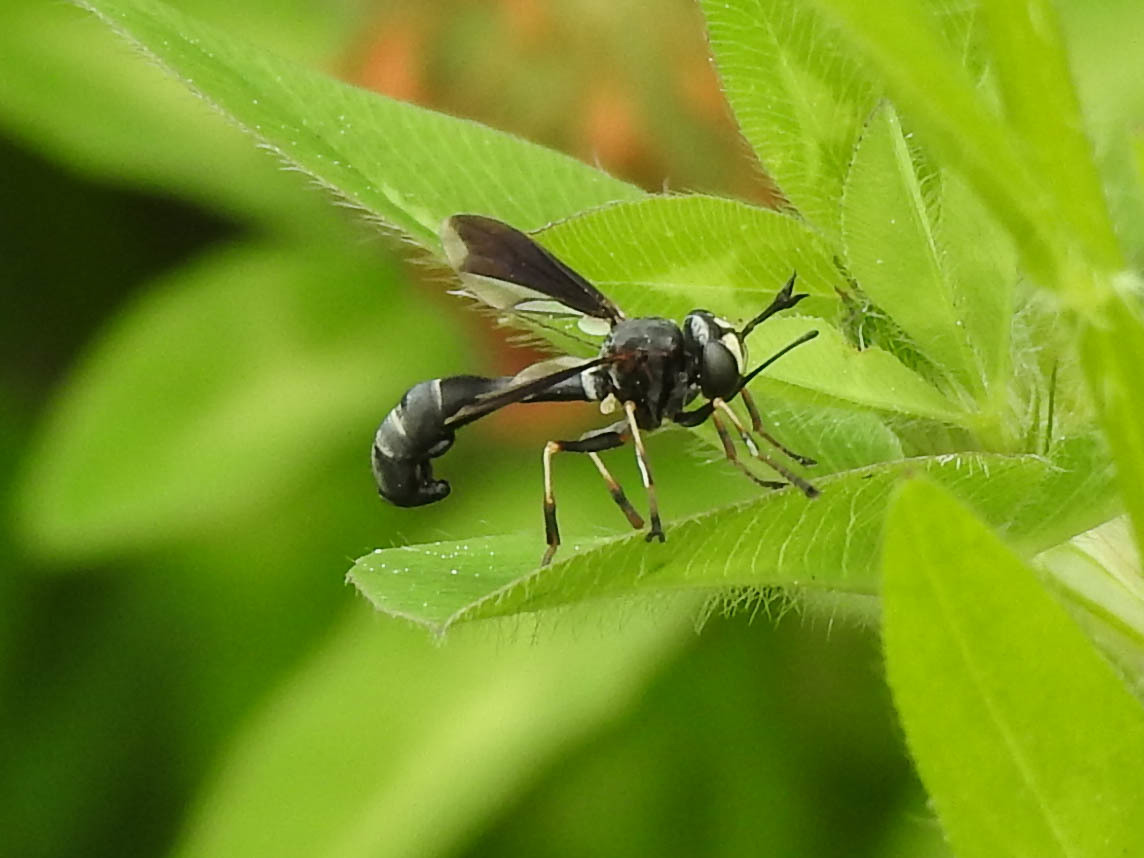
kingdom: Animalia
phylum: Arthropoda
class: Insecta
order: Diptera
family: Conopidae
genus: Physocephala
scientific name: Physocephala tibialis
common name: Common eastern physocephala
